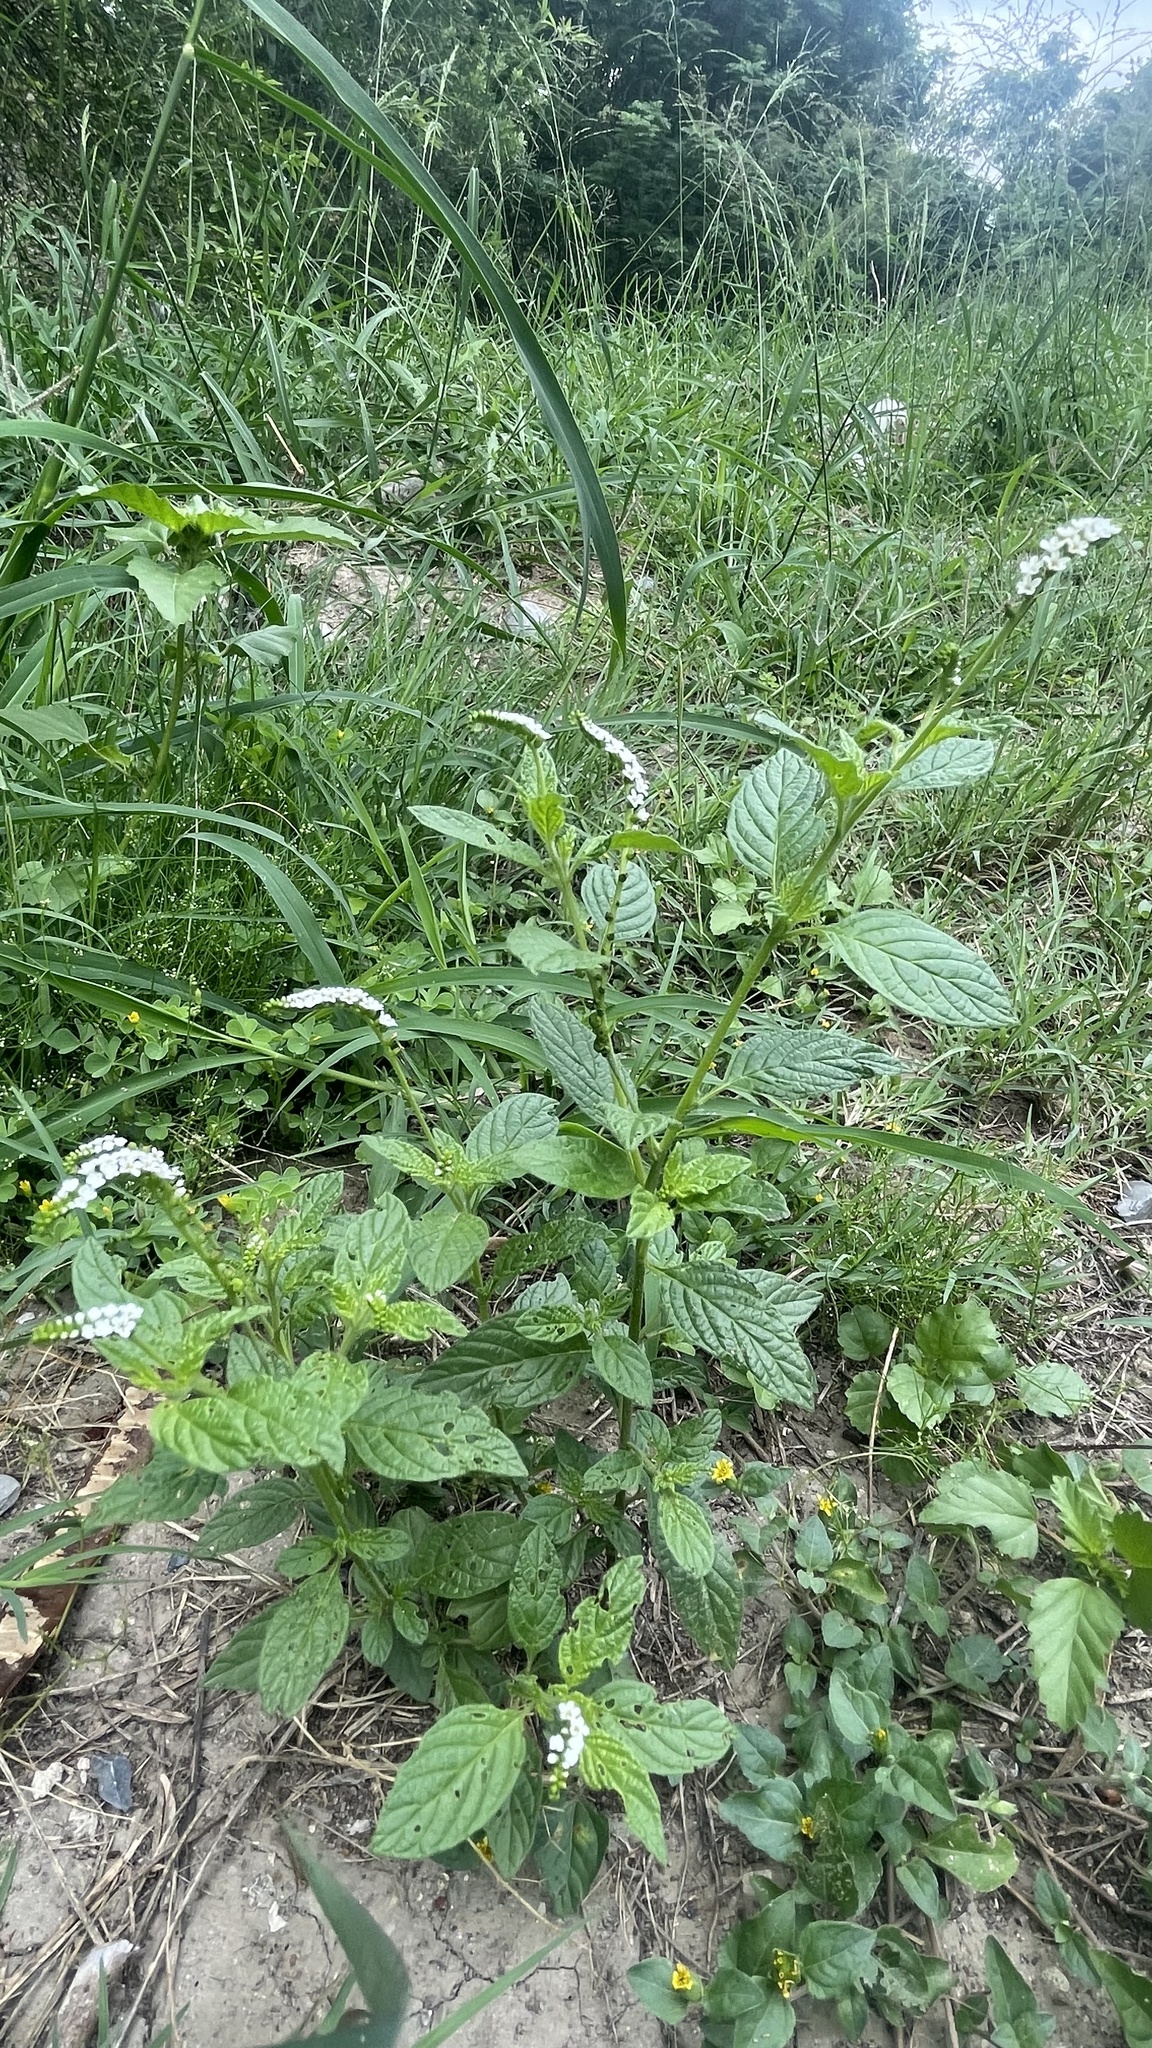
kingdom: Plantae
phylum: Tracheophyta
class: Magnoliopsida
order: Boraginales
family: Heliotropiaceae
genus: Heliotropium
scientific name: Heliotropium angiospermum
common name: Eye bright
